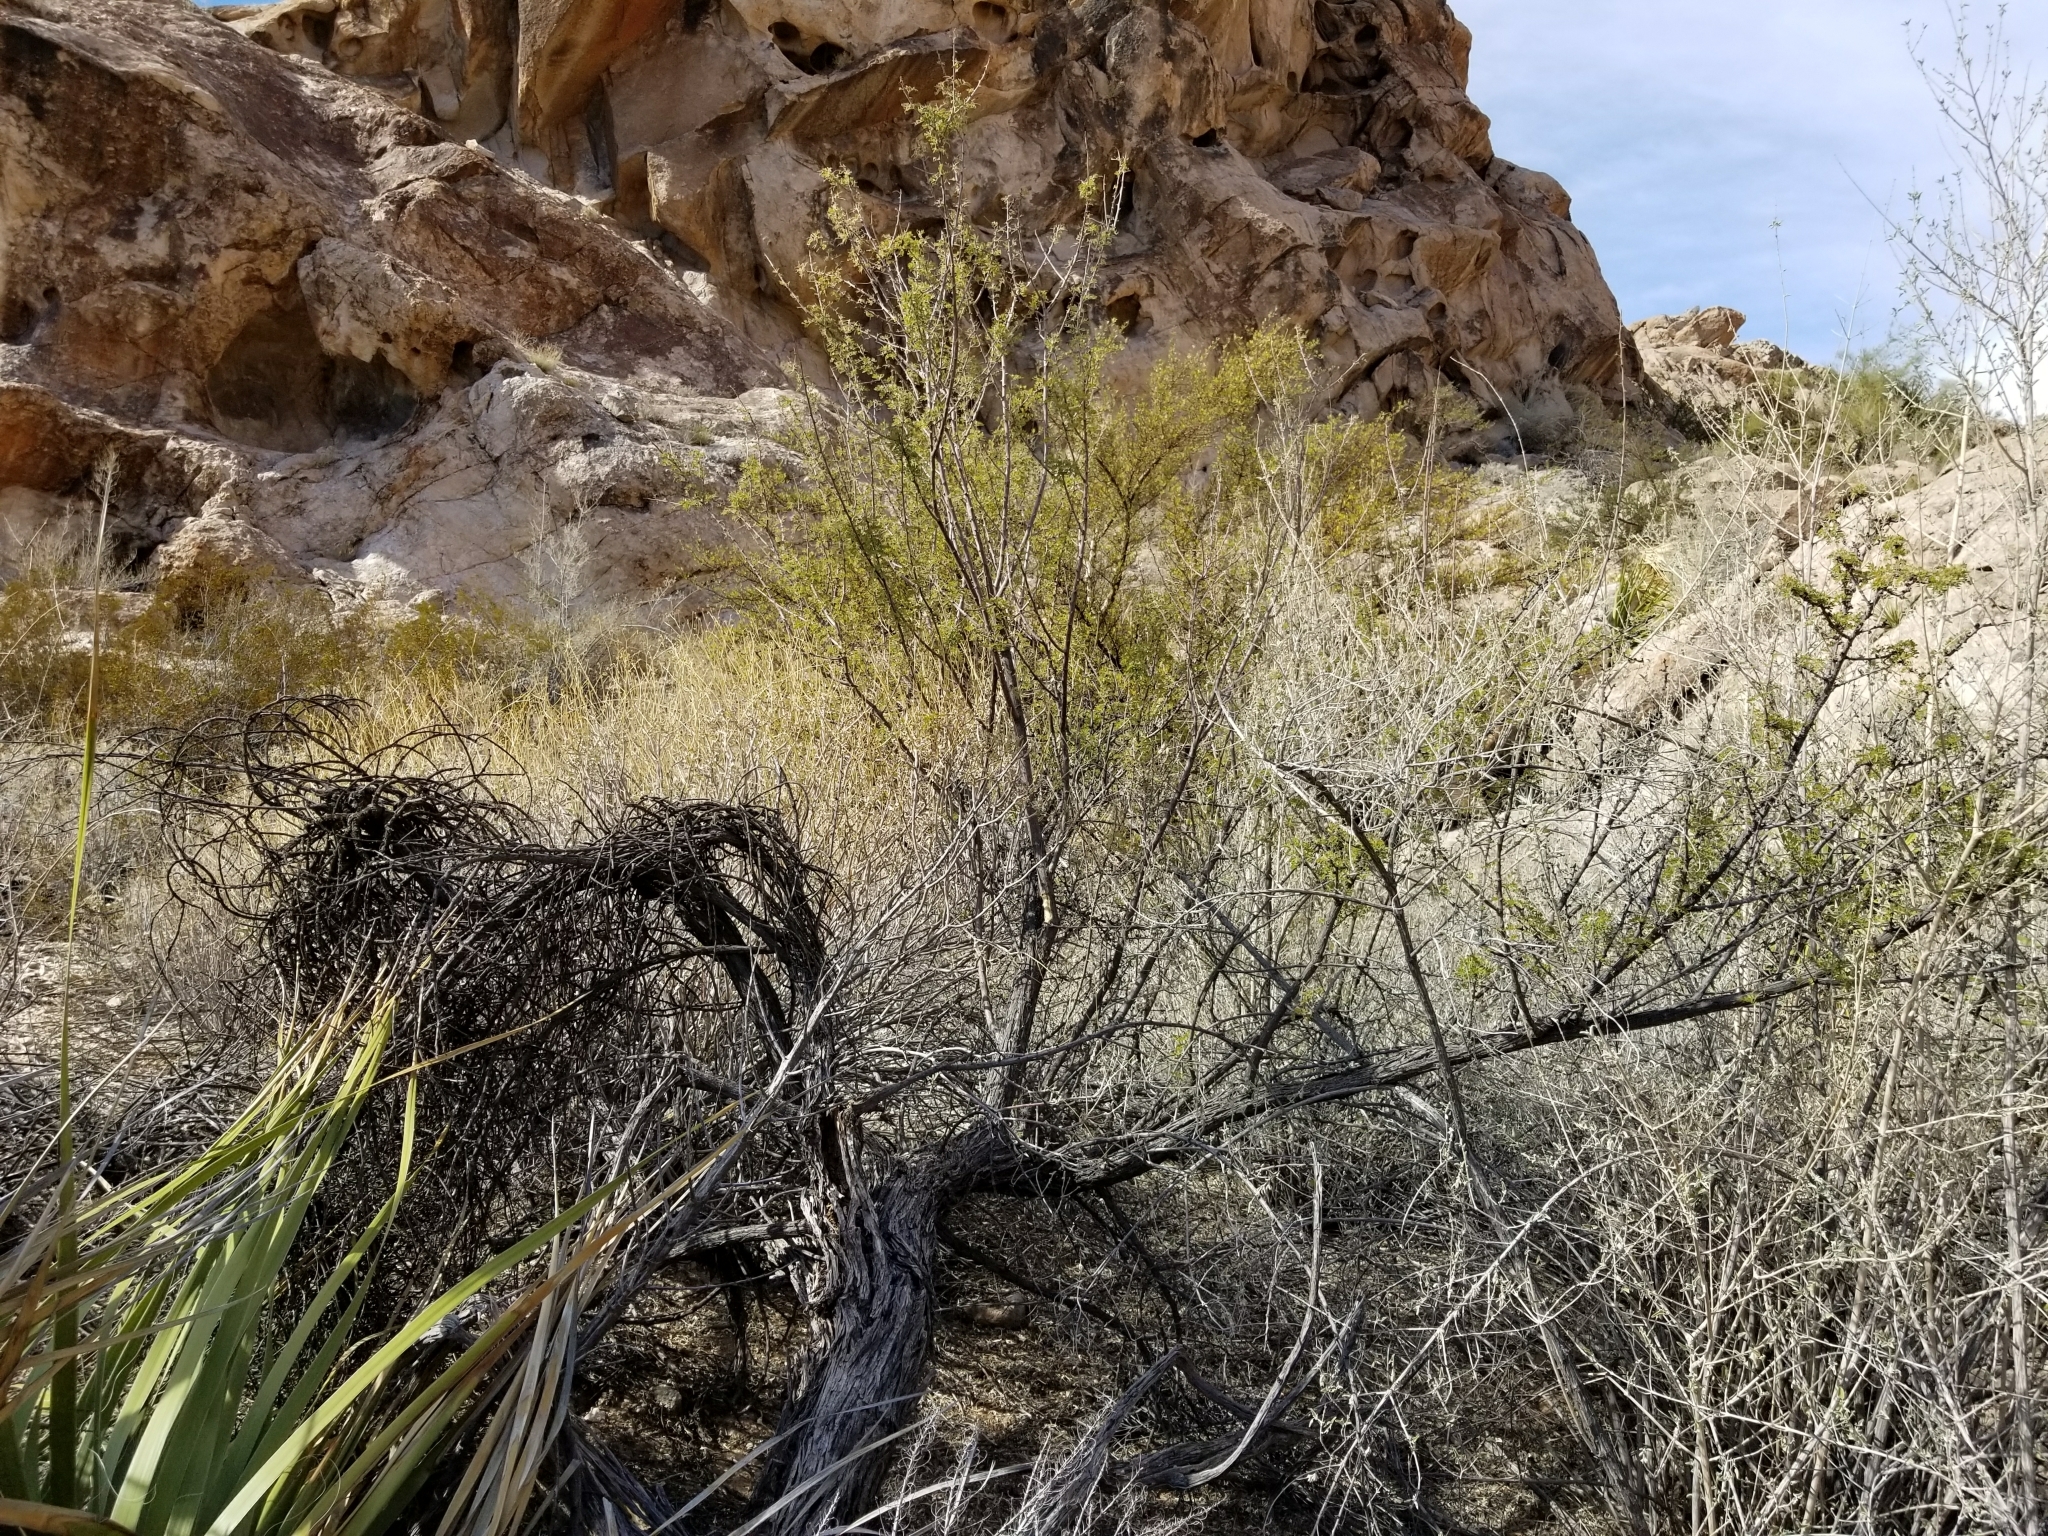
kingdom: Plantae
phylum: Tracheophyta
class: Magnoliopsida
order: Fabales
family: Fabaceae
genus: Senegalia
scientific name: Senegalia greggii
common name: Texas-mimosa
